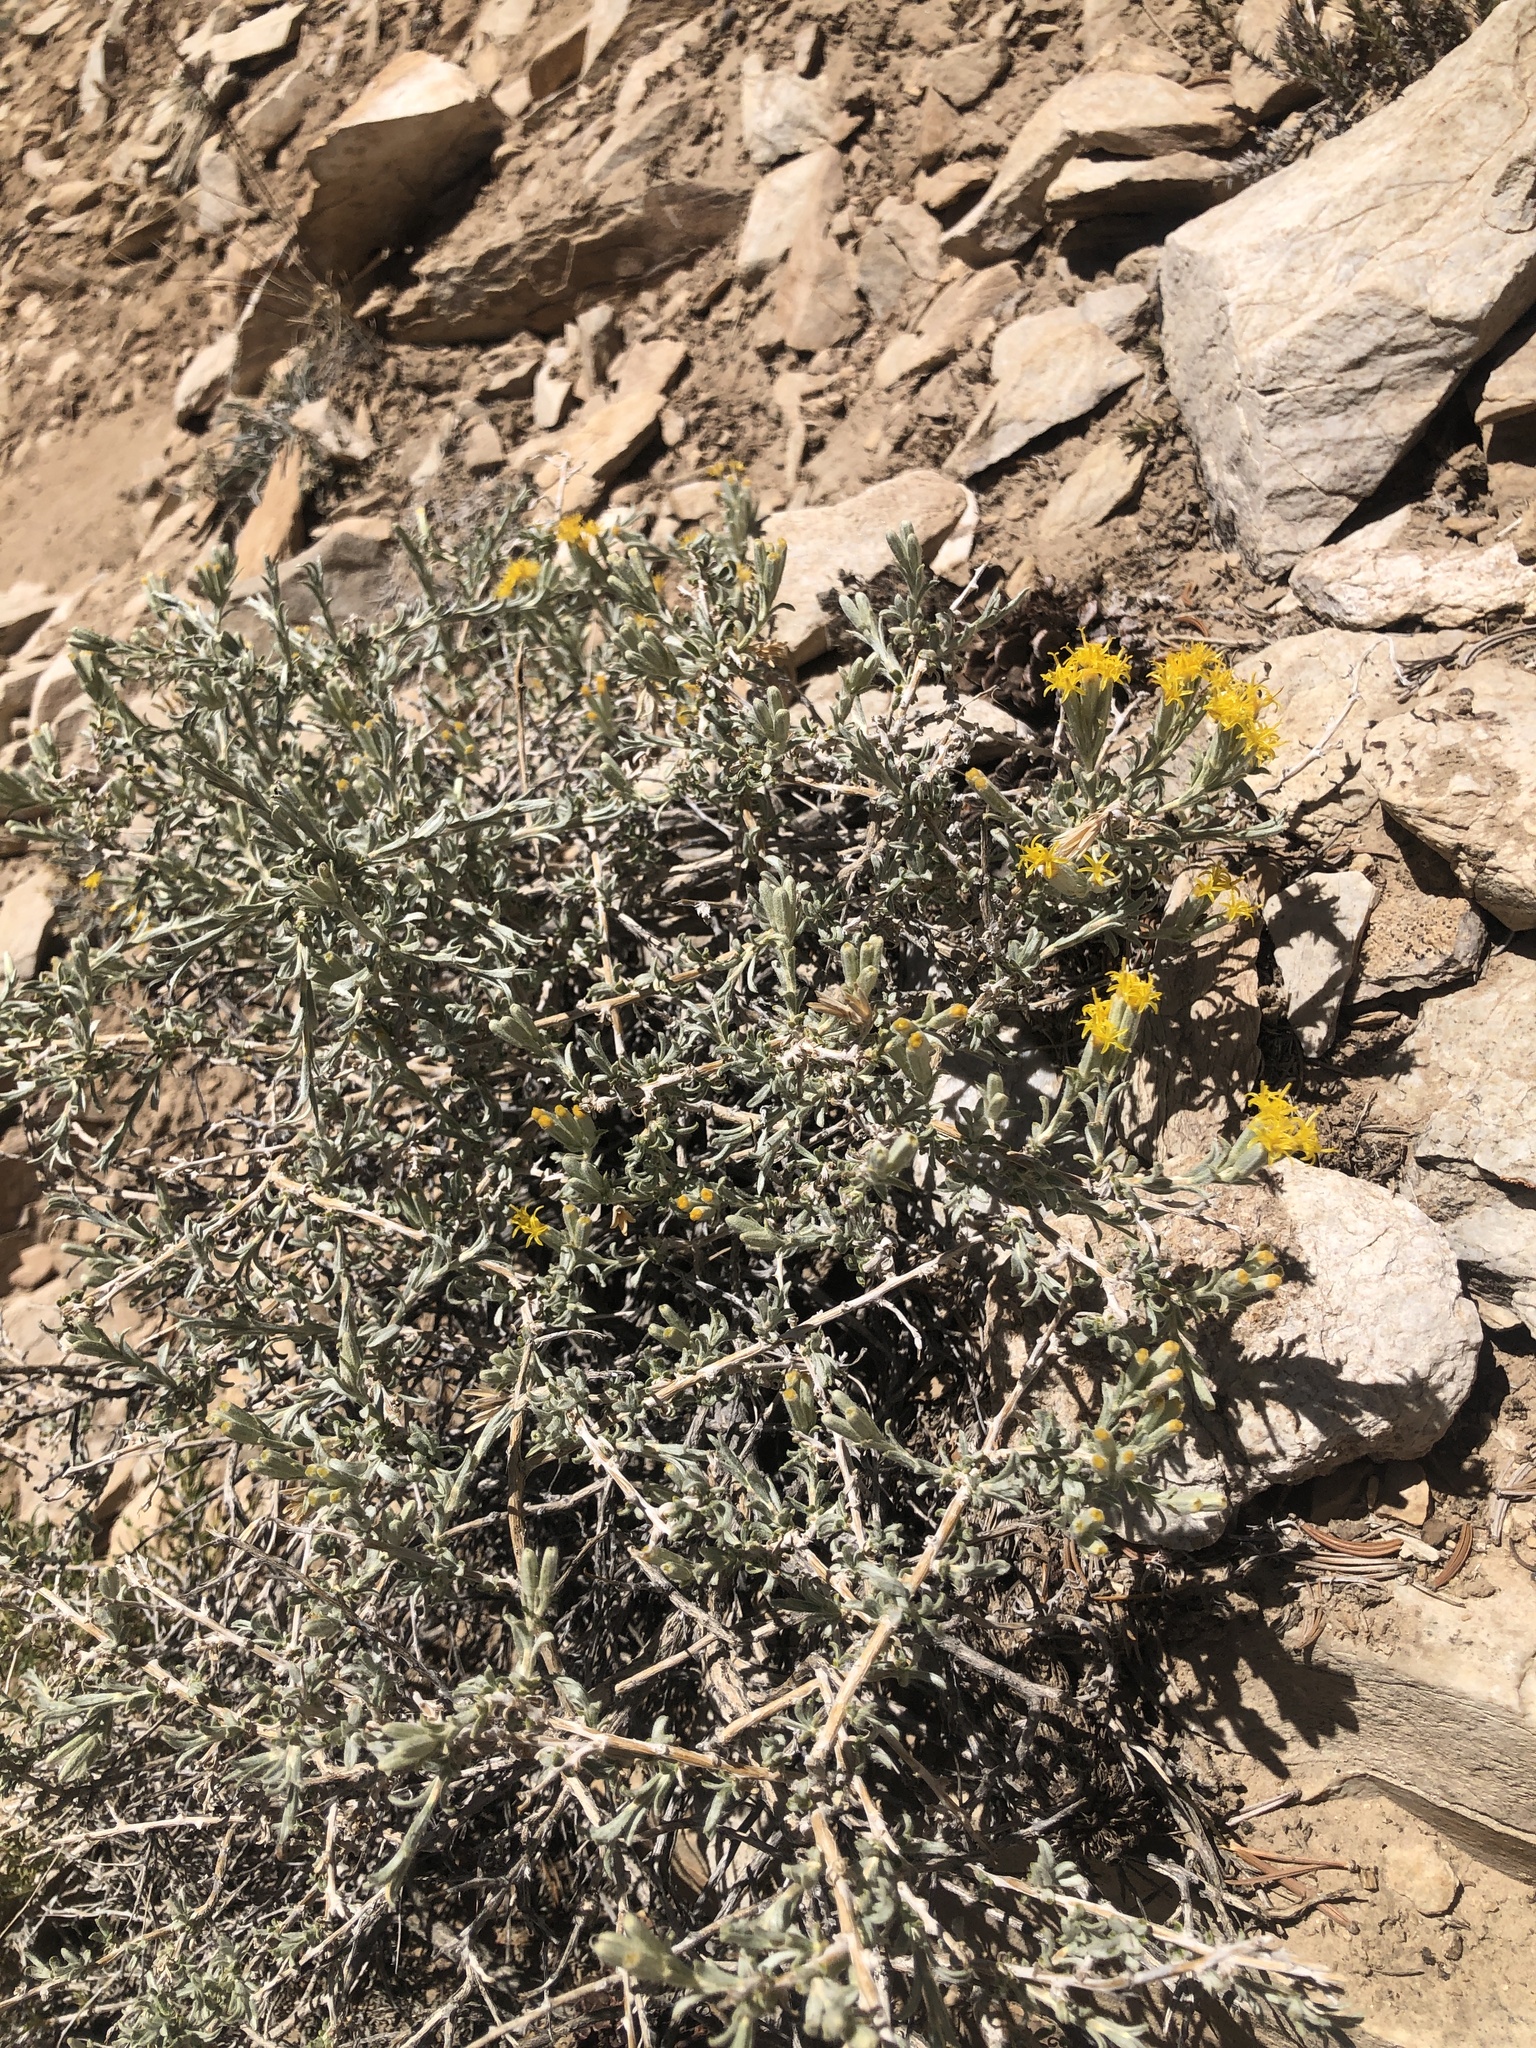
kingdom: Plantae
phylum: Tracheophyta
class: Magnoliopsida
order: Asterales
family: Asteraceae
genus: Tetradymia
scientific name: Tetradymia canescens
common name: Spineless horsebrush
